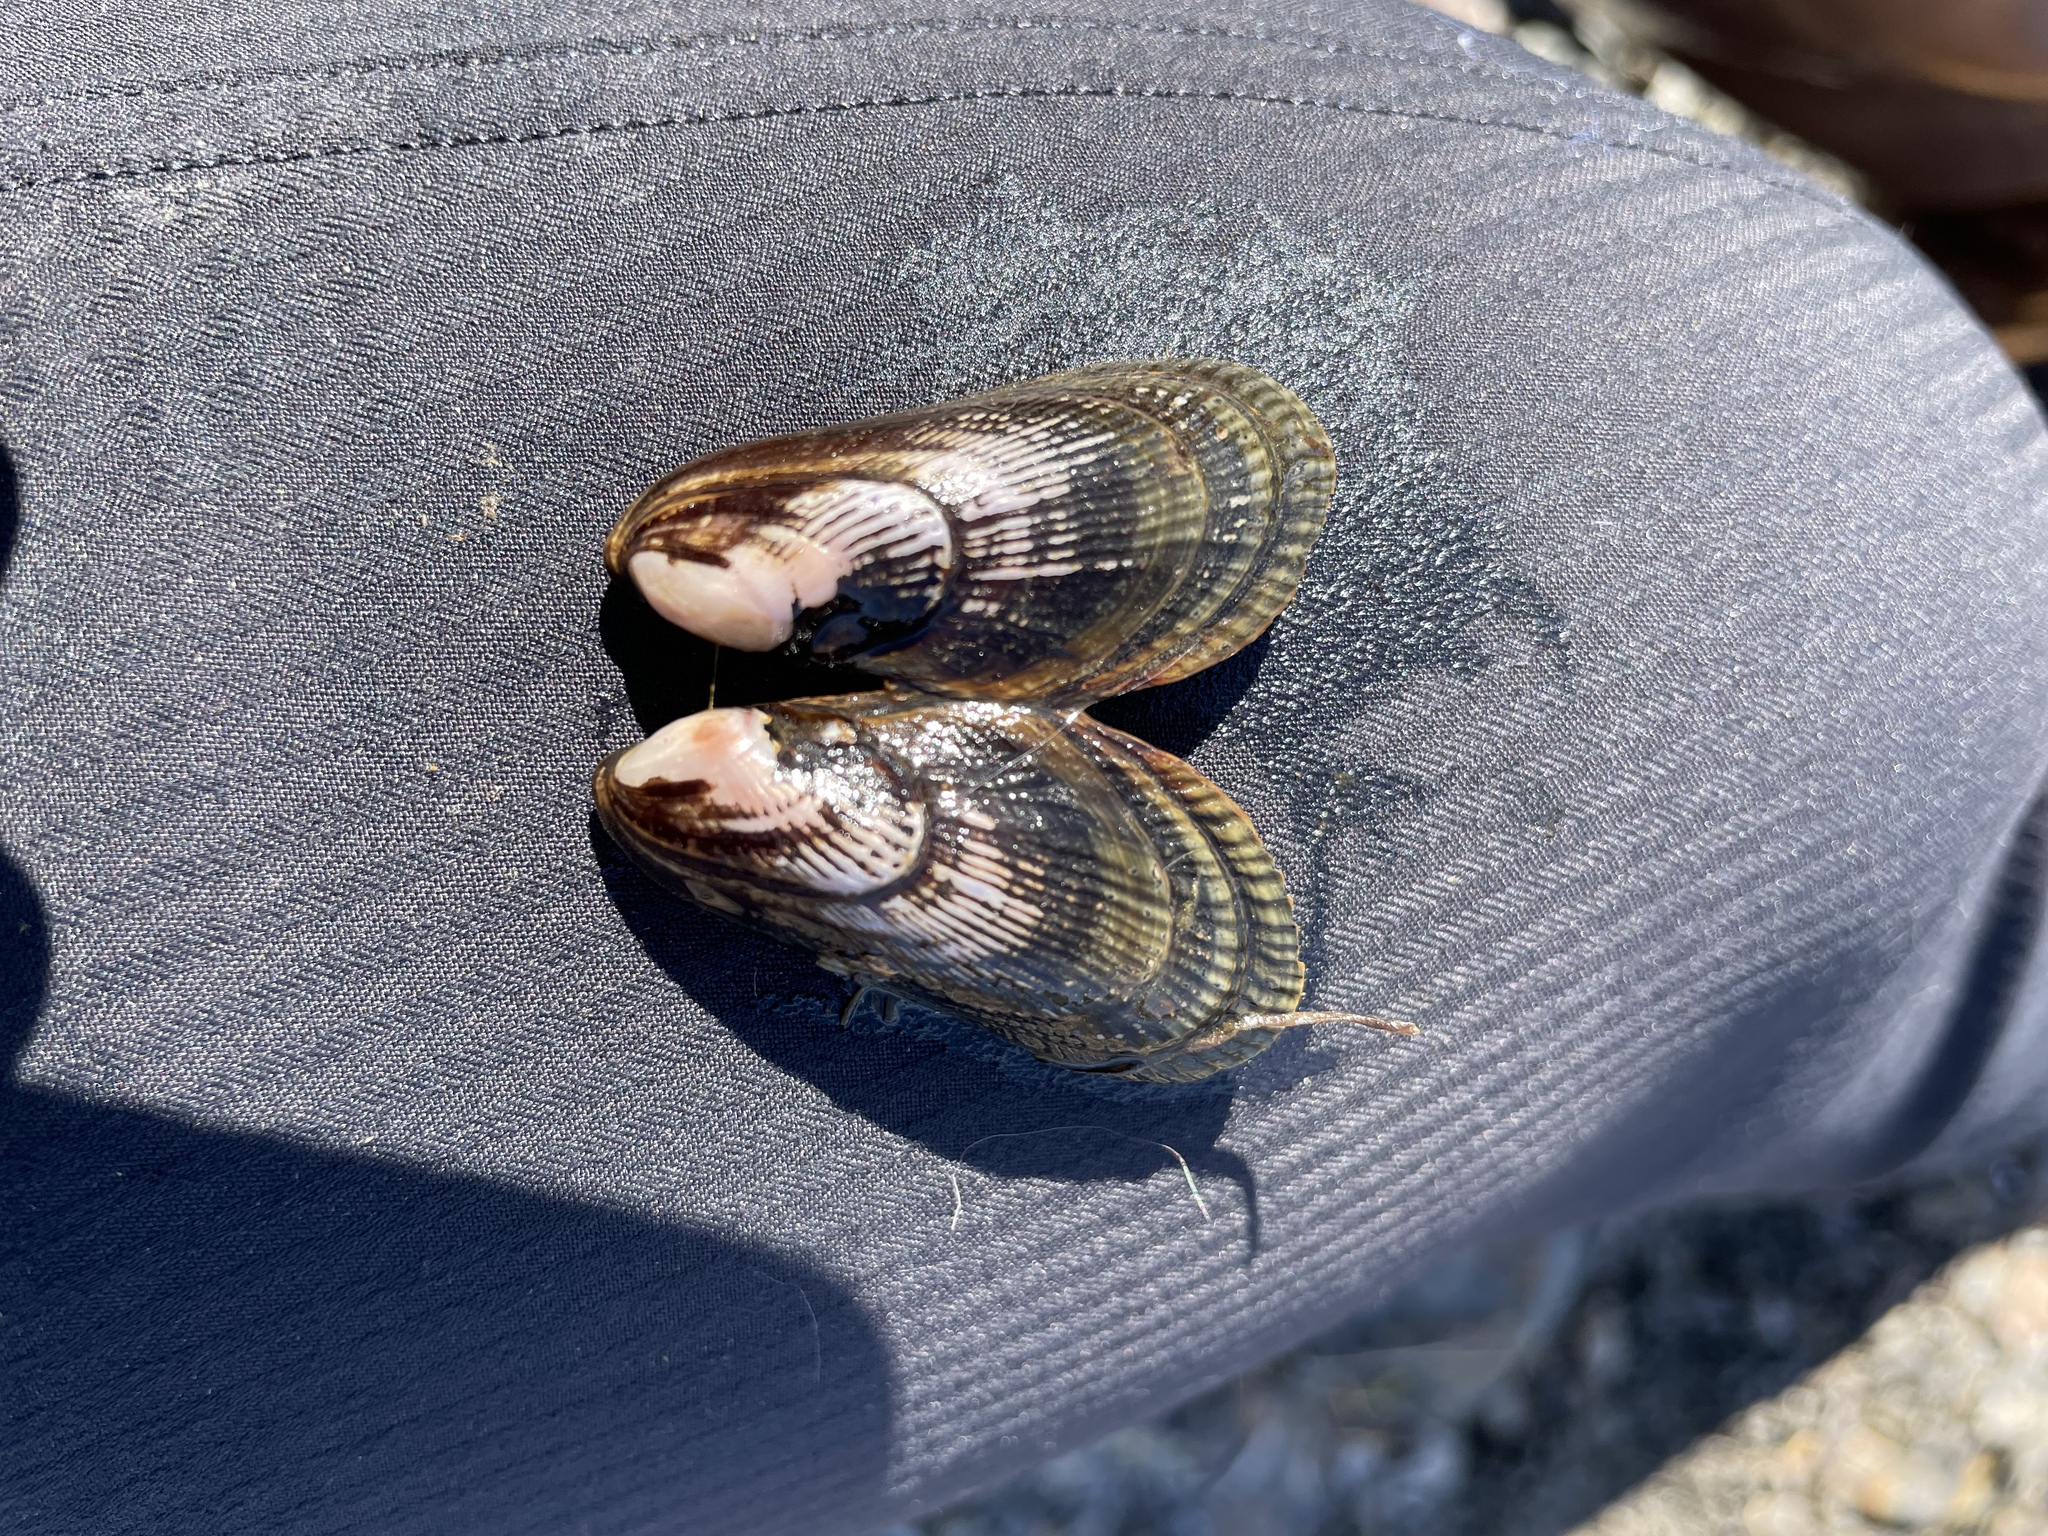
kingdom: Animalia
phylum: Mollusca
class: Bivalvia
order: Mytilida
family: Mytilidae
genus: Geukensia
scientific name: Geukensia demissa
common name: Ribbed mussel
